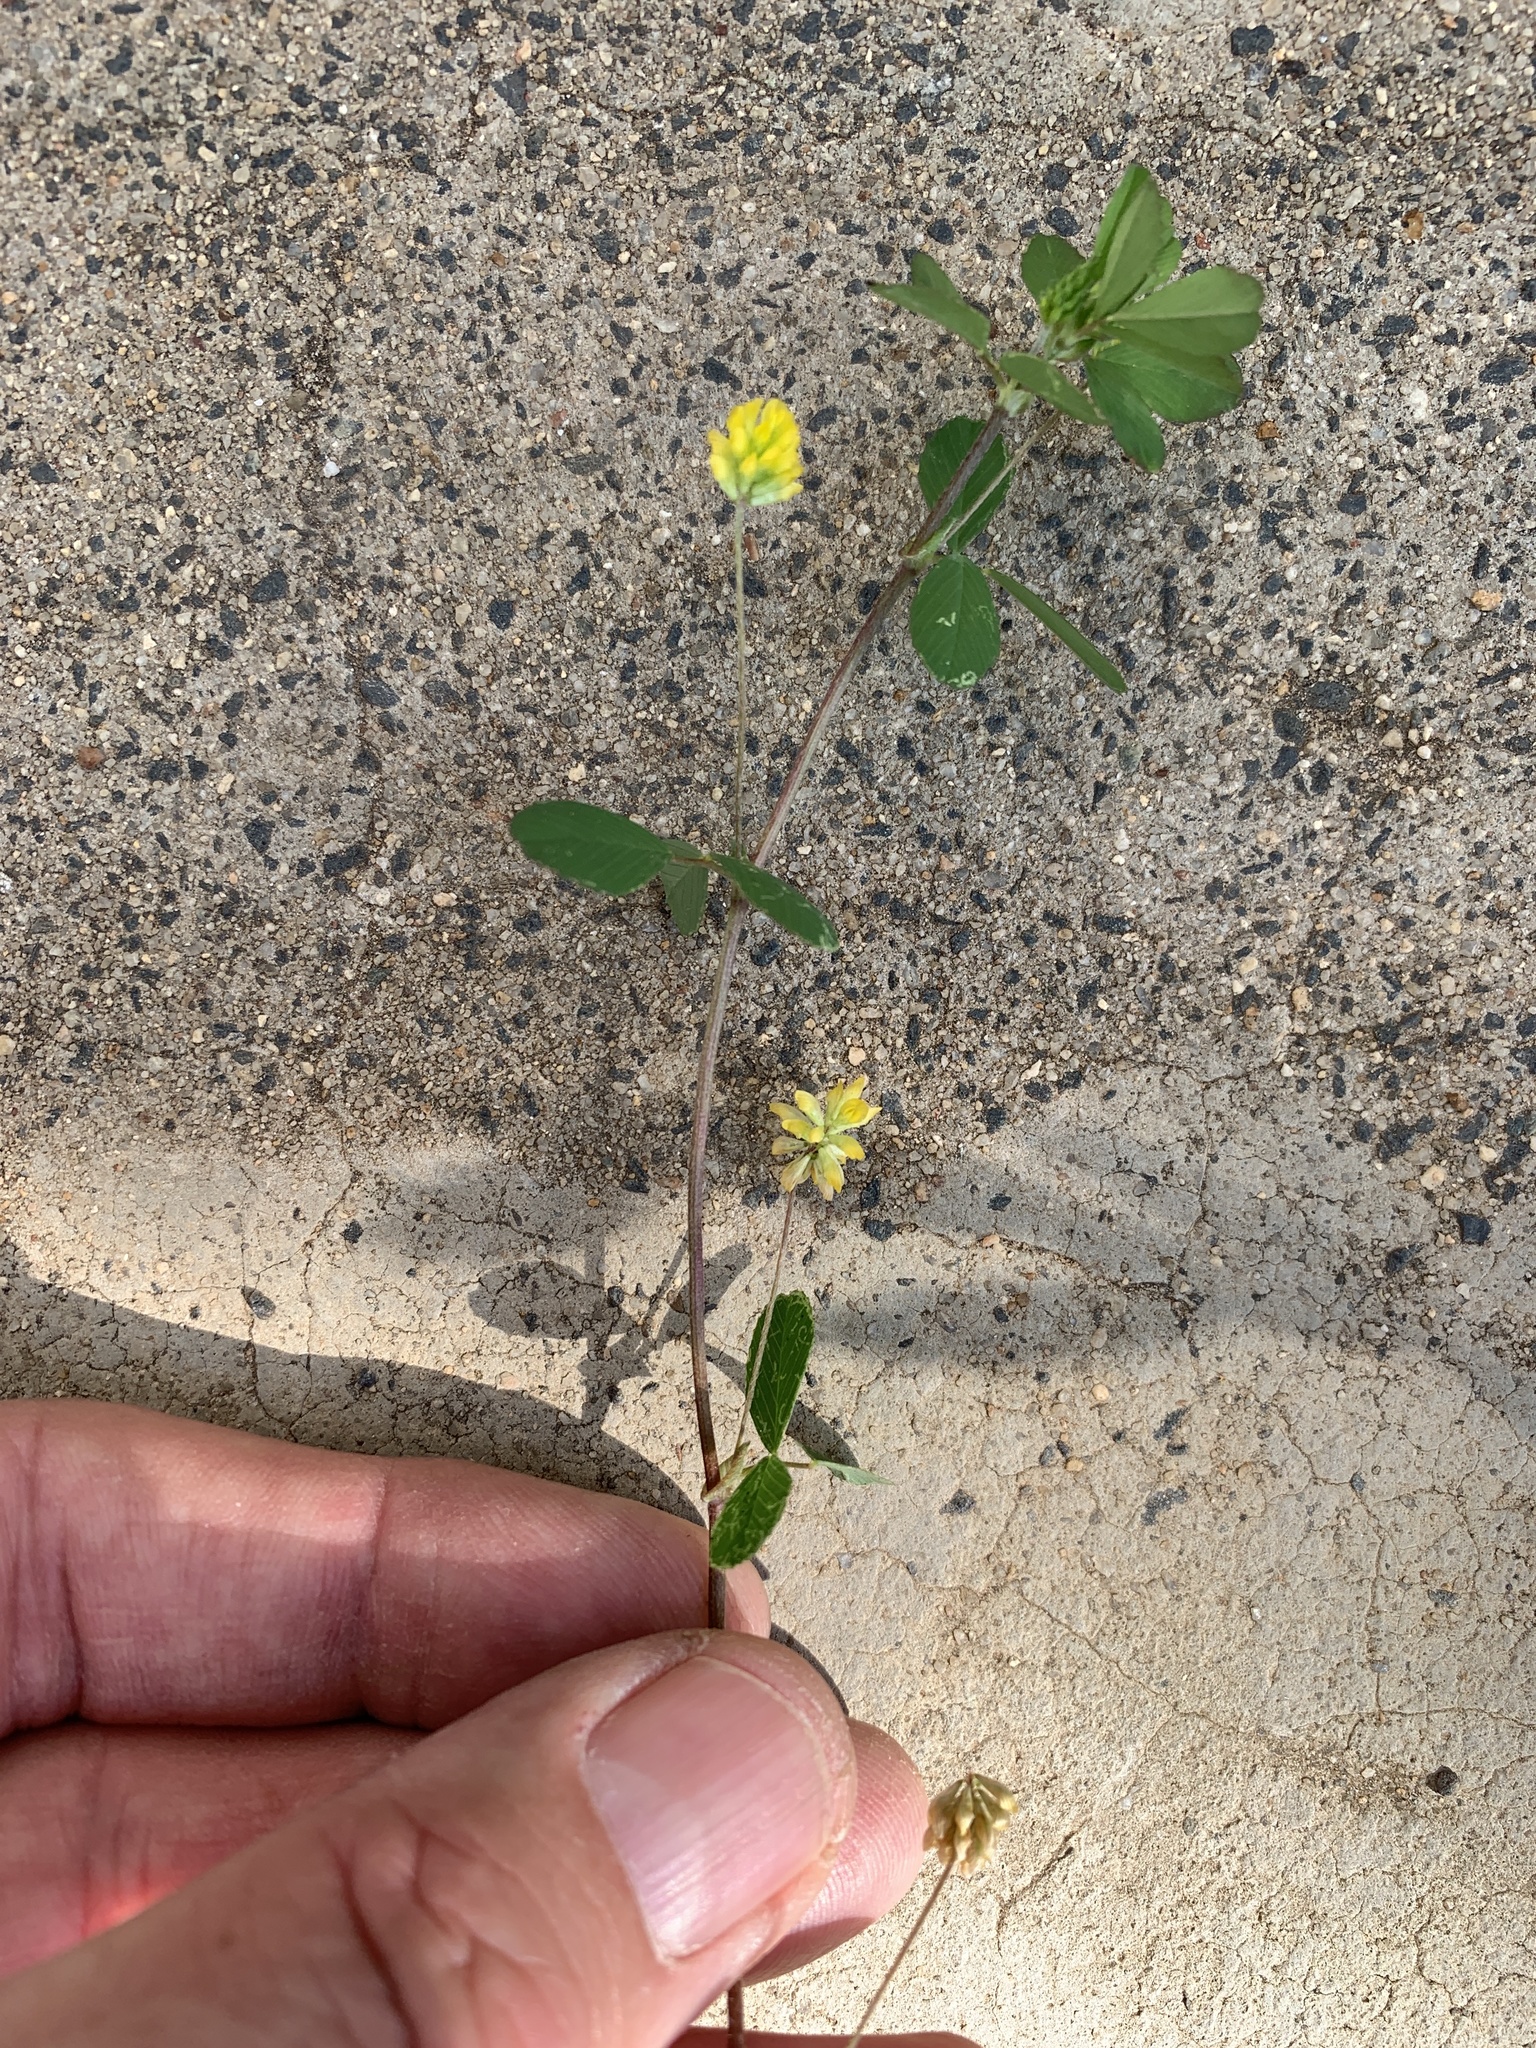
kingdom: Plantae
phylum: Tracheophyta
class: Magnoliopsida
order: Fabales
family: Fabaceae
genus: Trifolium
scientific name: Trifolium dubium
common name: Suckling clover
